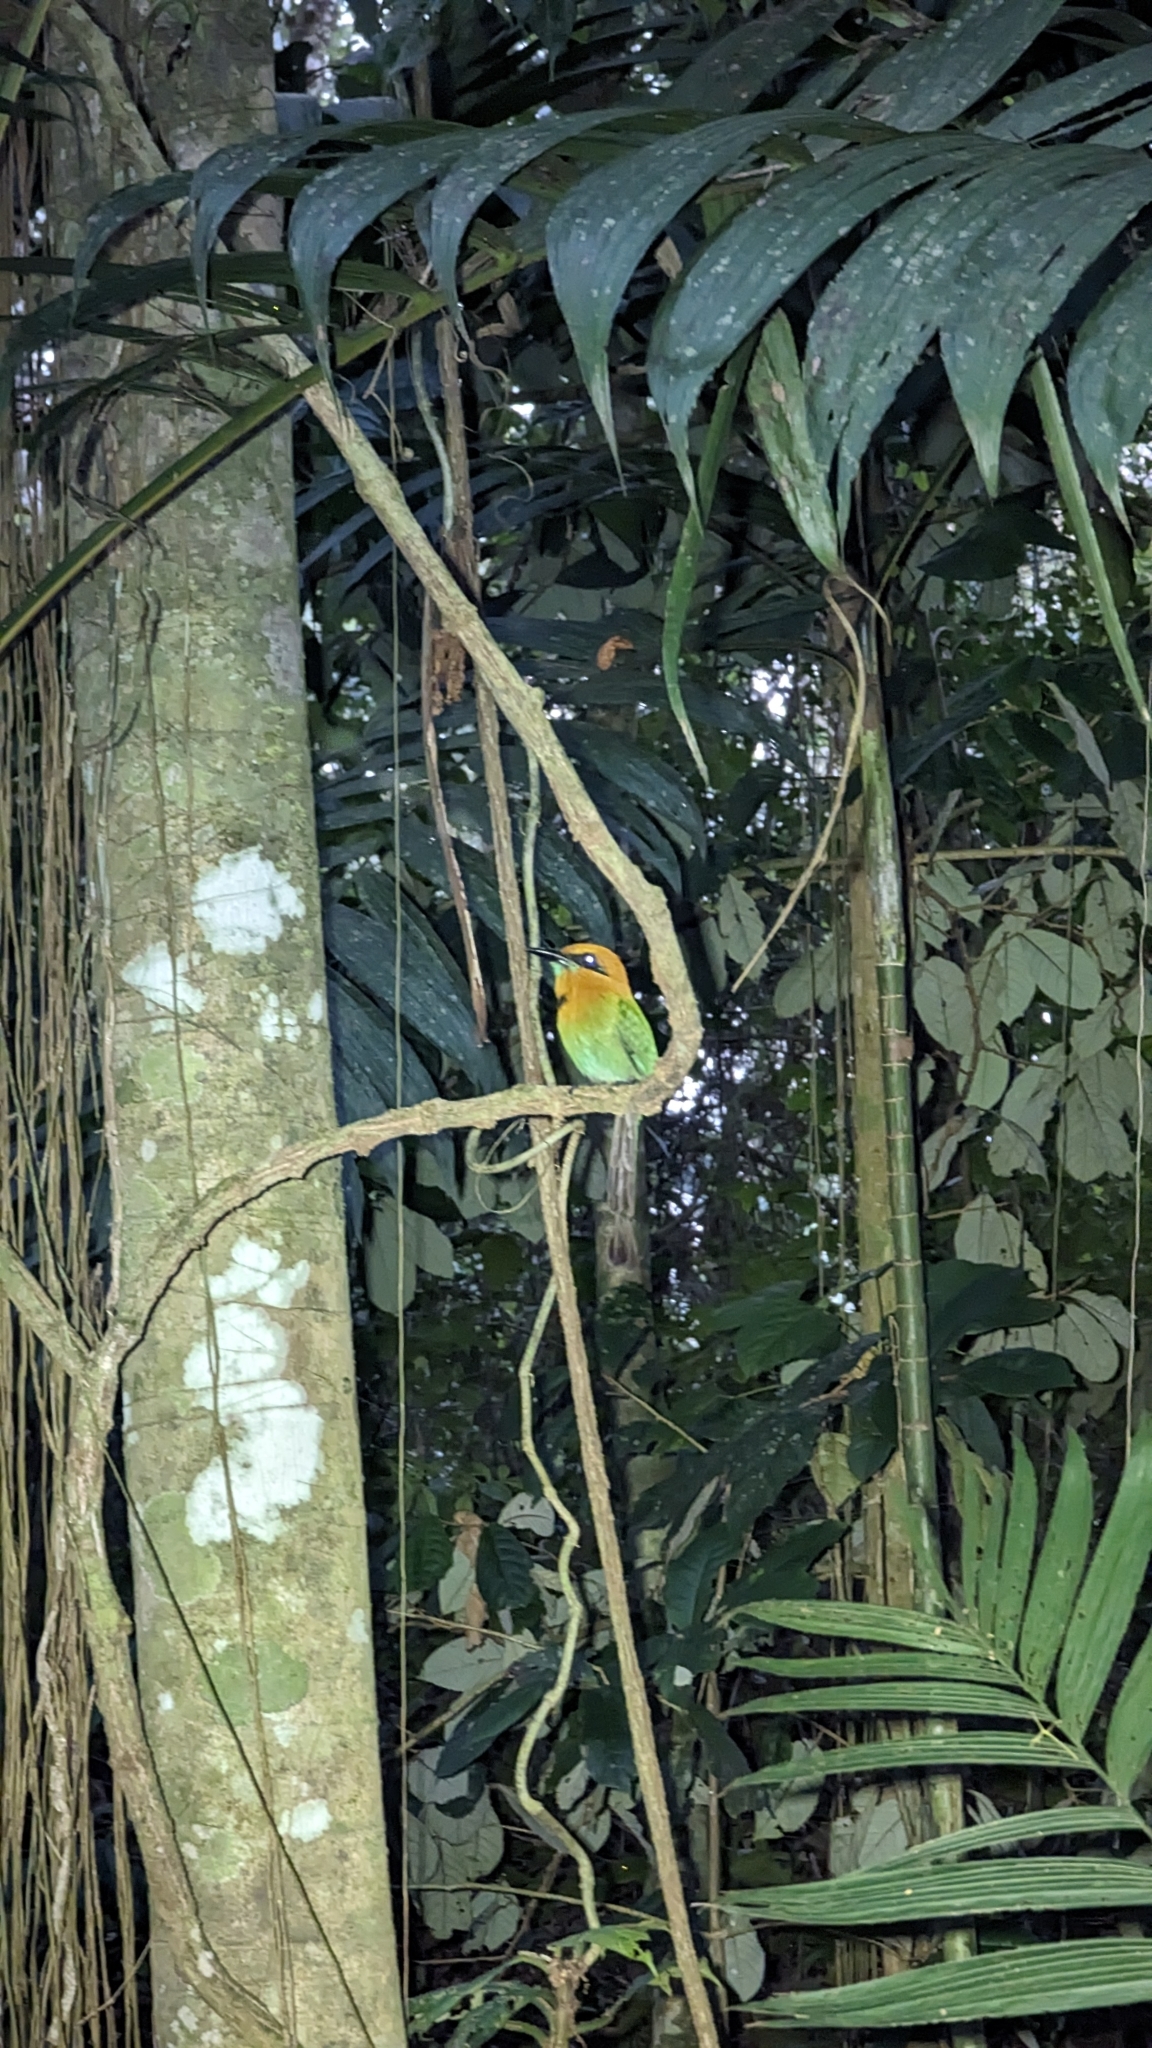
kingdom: Animalia
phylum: Chordata
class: Aves
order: Coraciiformes
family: Momotidae
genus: Electron
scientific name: Electron platyrhynchum
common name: Broad-billed motmot
